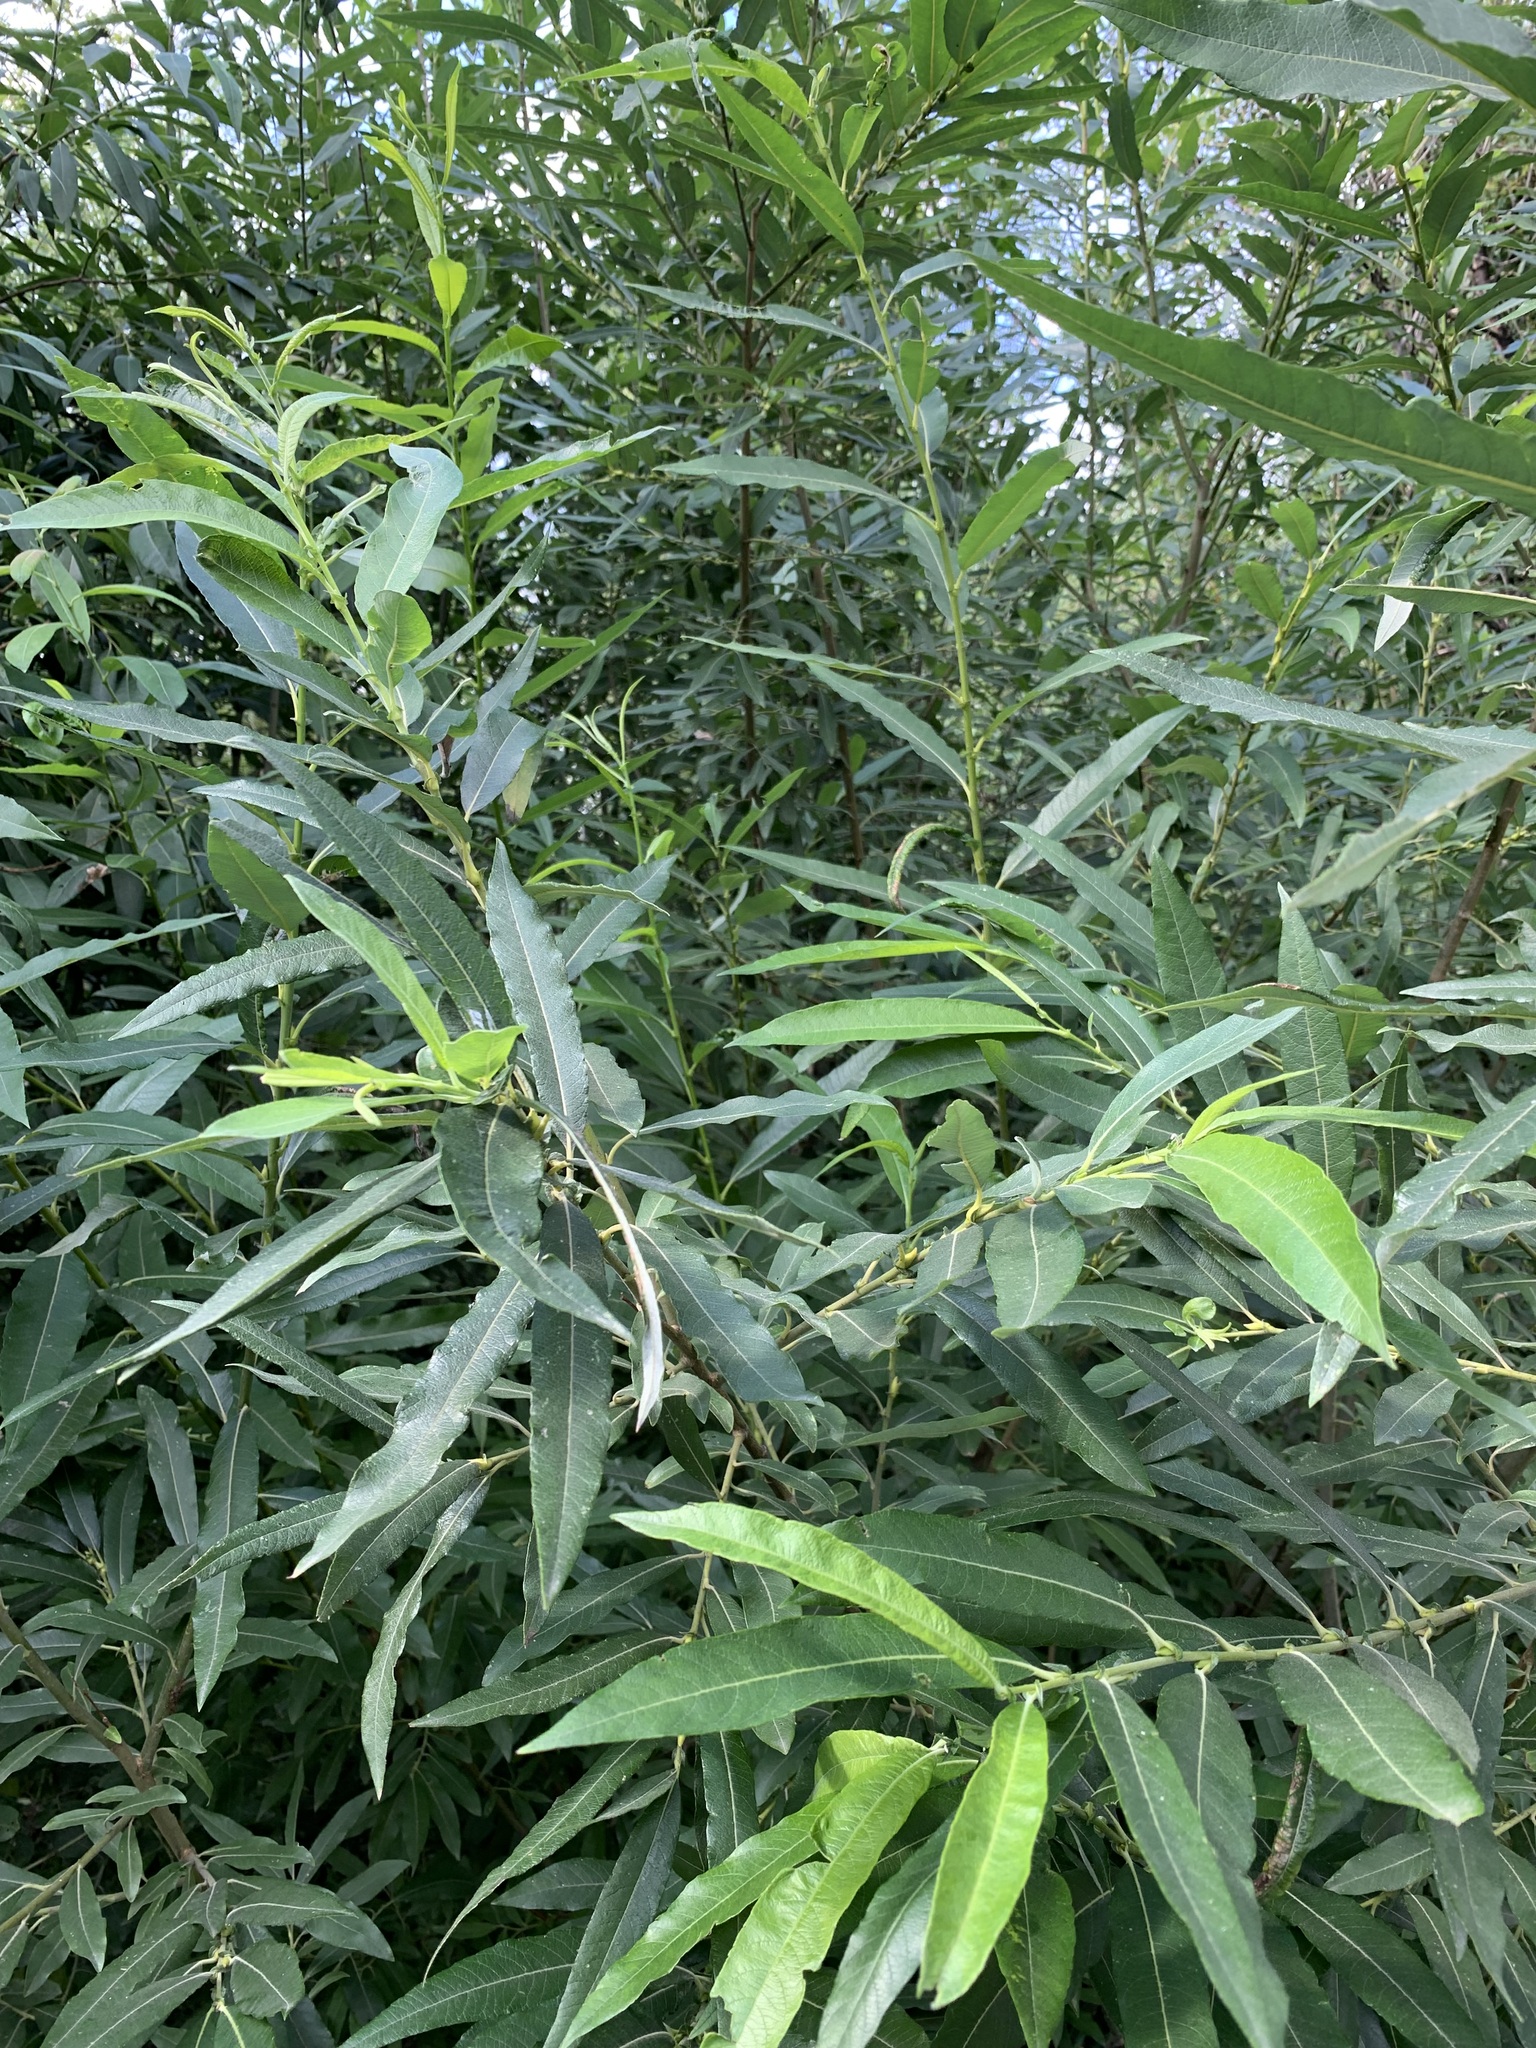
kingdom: Plantae
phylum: Tracheophyta
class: Magnoliopsida
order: Malpighiales
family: Salicaceae
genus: Salix
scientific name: Salix gmelinii
